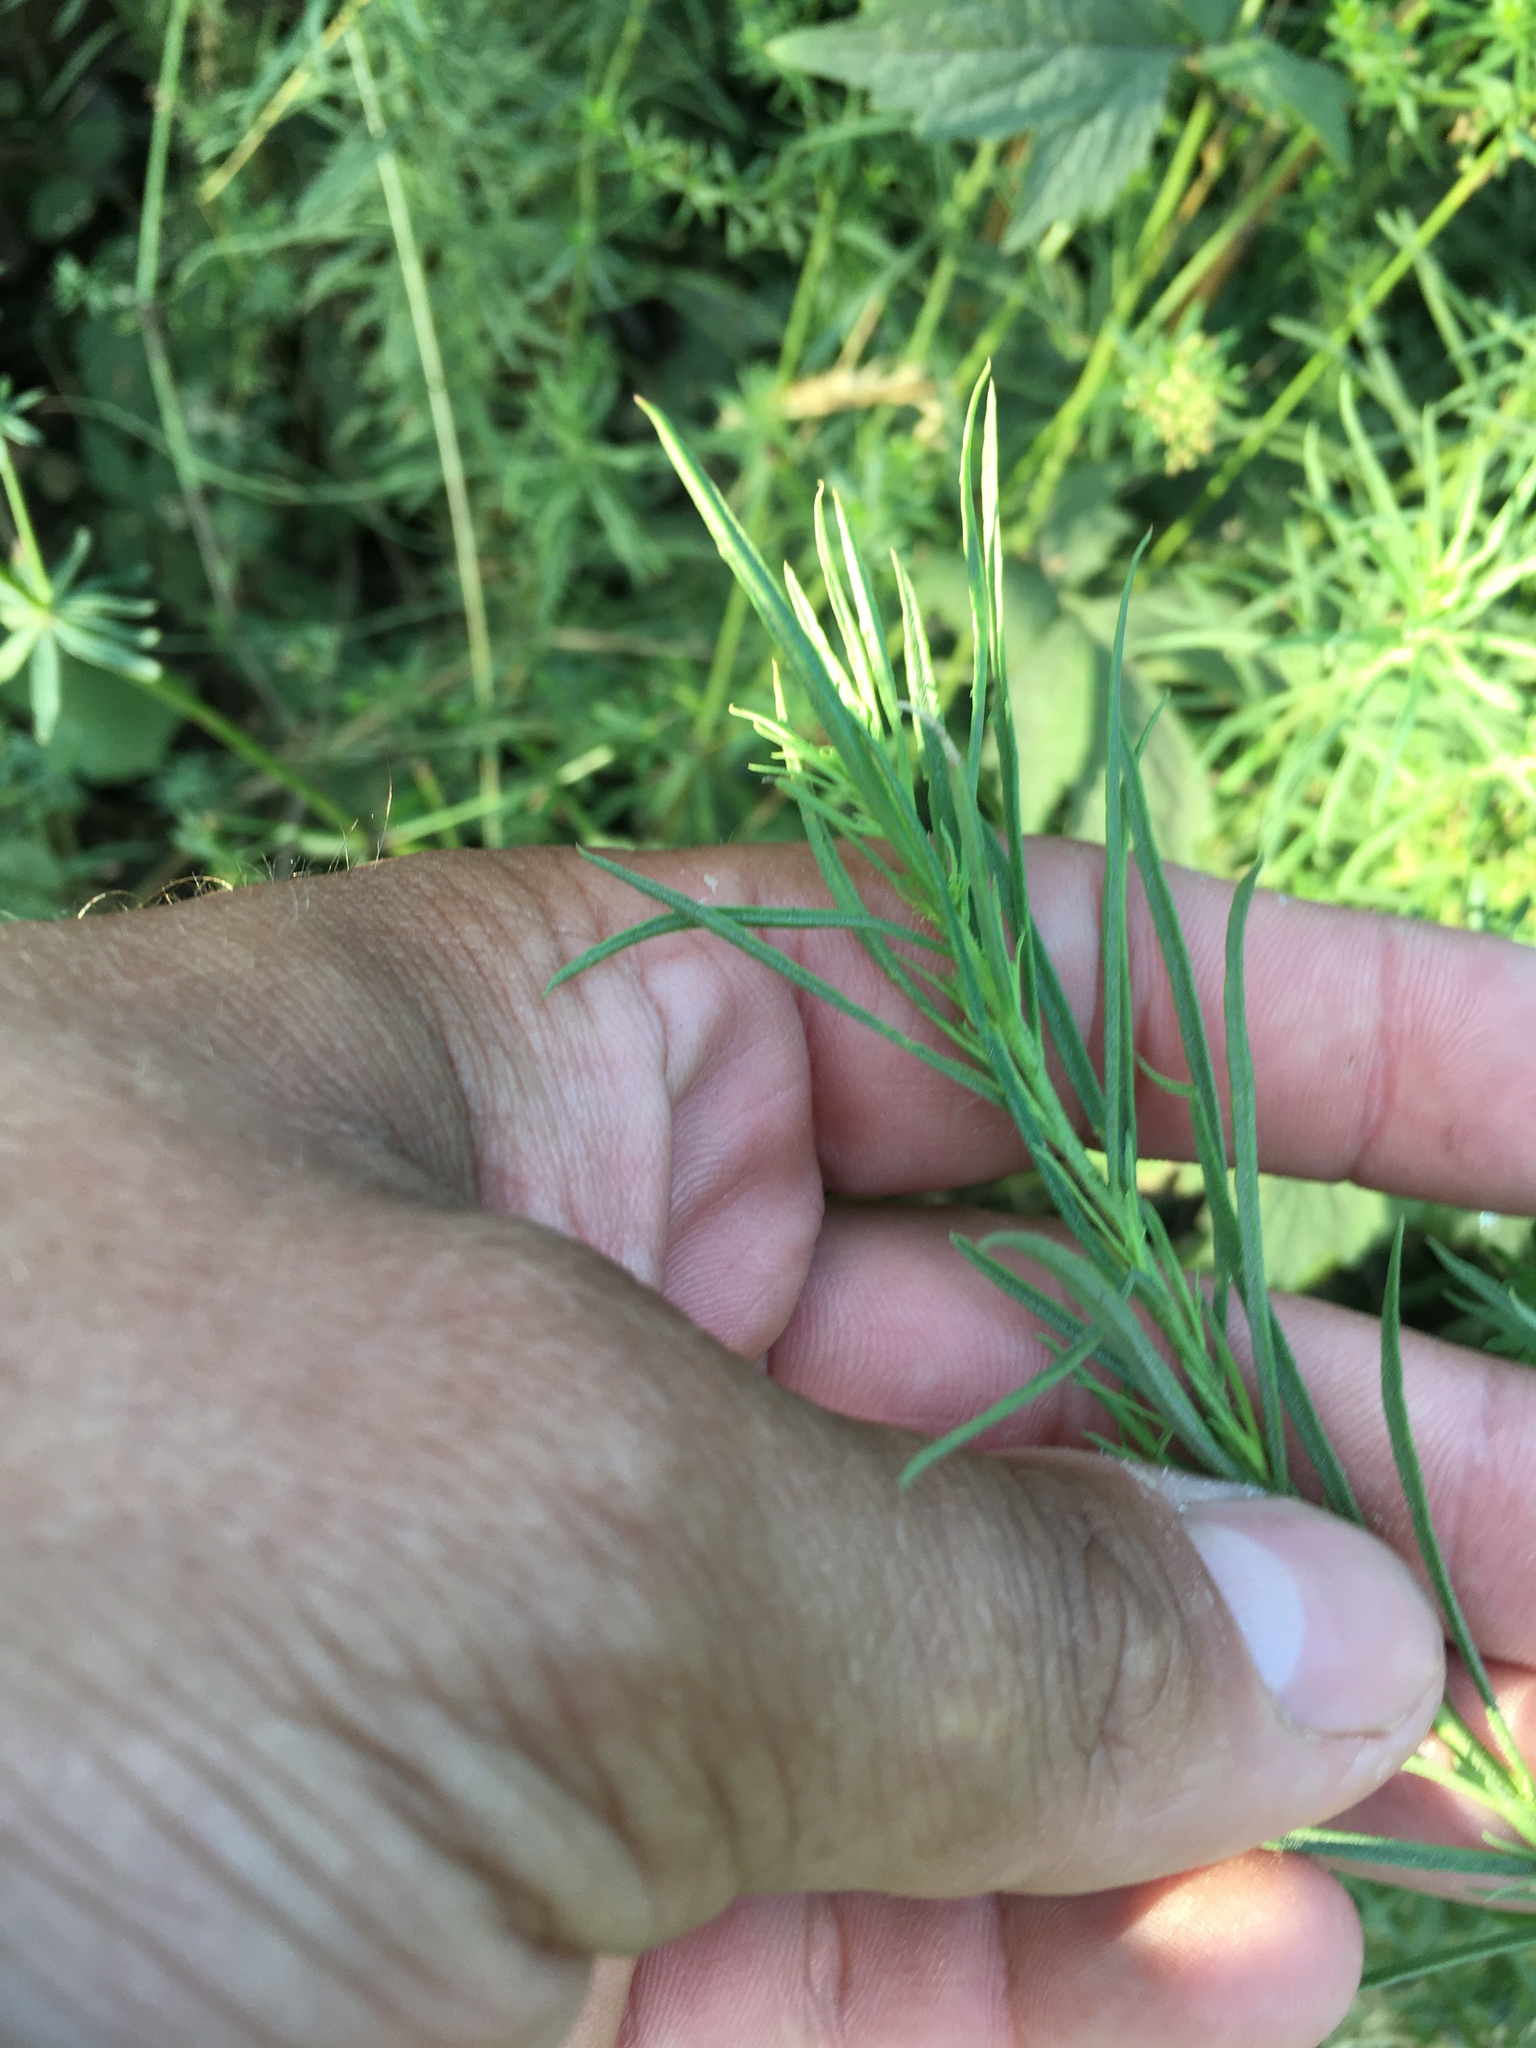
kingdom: Plantae
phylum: Tracheophyta
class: Magnoliopsida
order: Lamiales
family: Plantaginaceae
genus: Linaria
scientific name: Linaria vulgaris
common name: Butter and eggs
